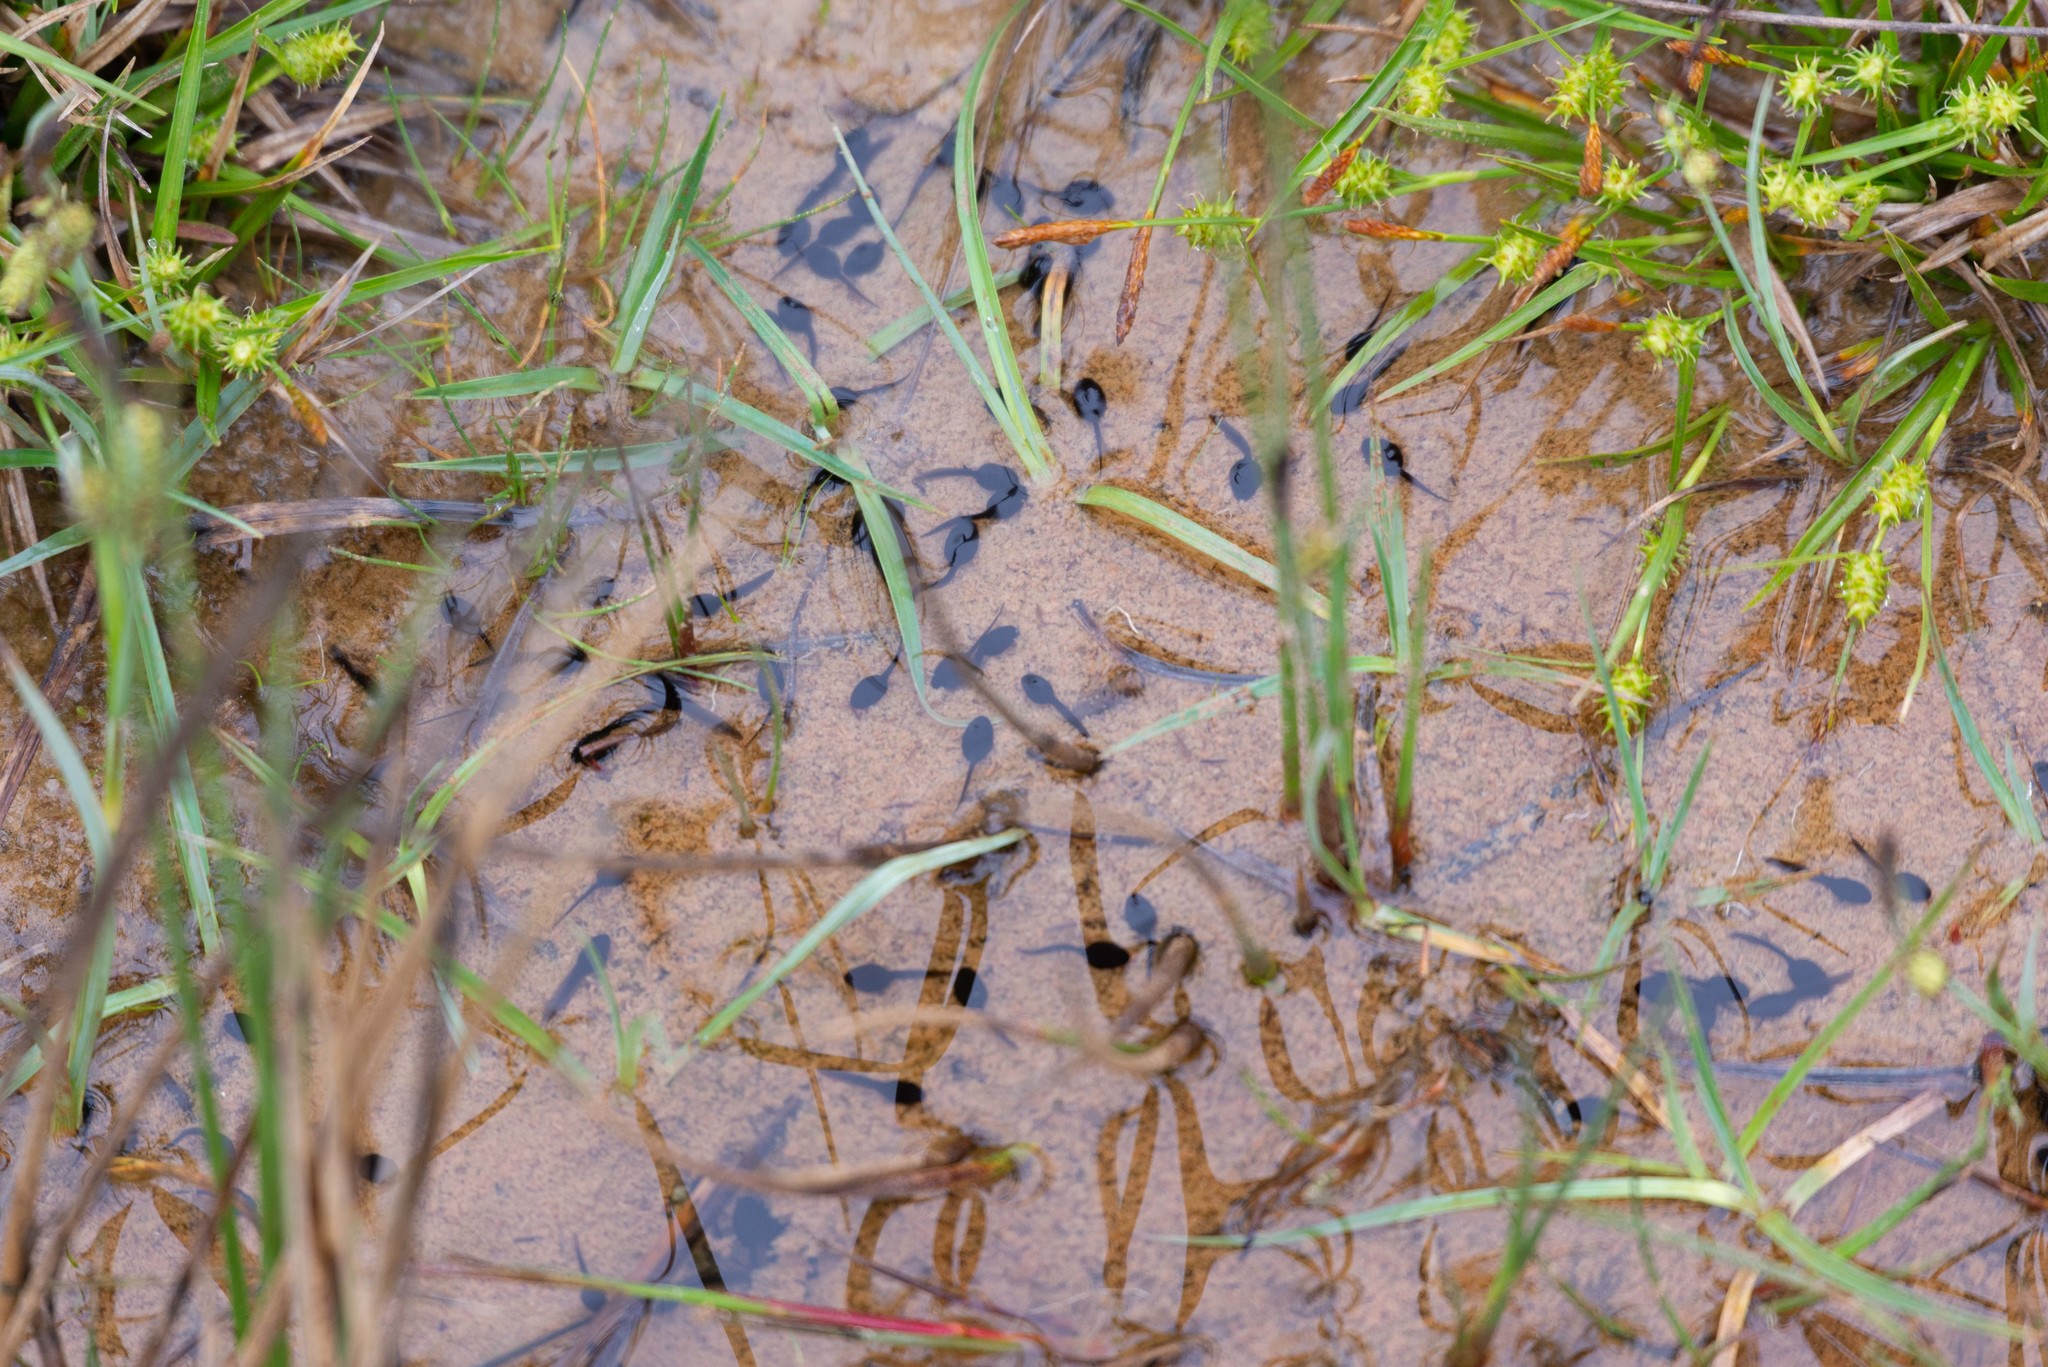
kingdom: Animalia
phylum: Chordata
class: Amphibia
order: Anura
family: Bufonidae
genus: Epidalea
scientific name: Epidalea calamita
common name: Natterjack toad
